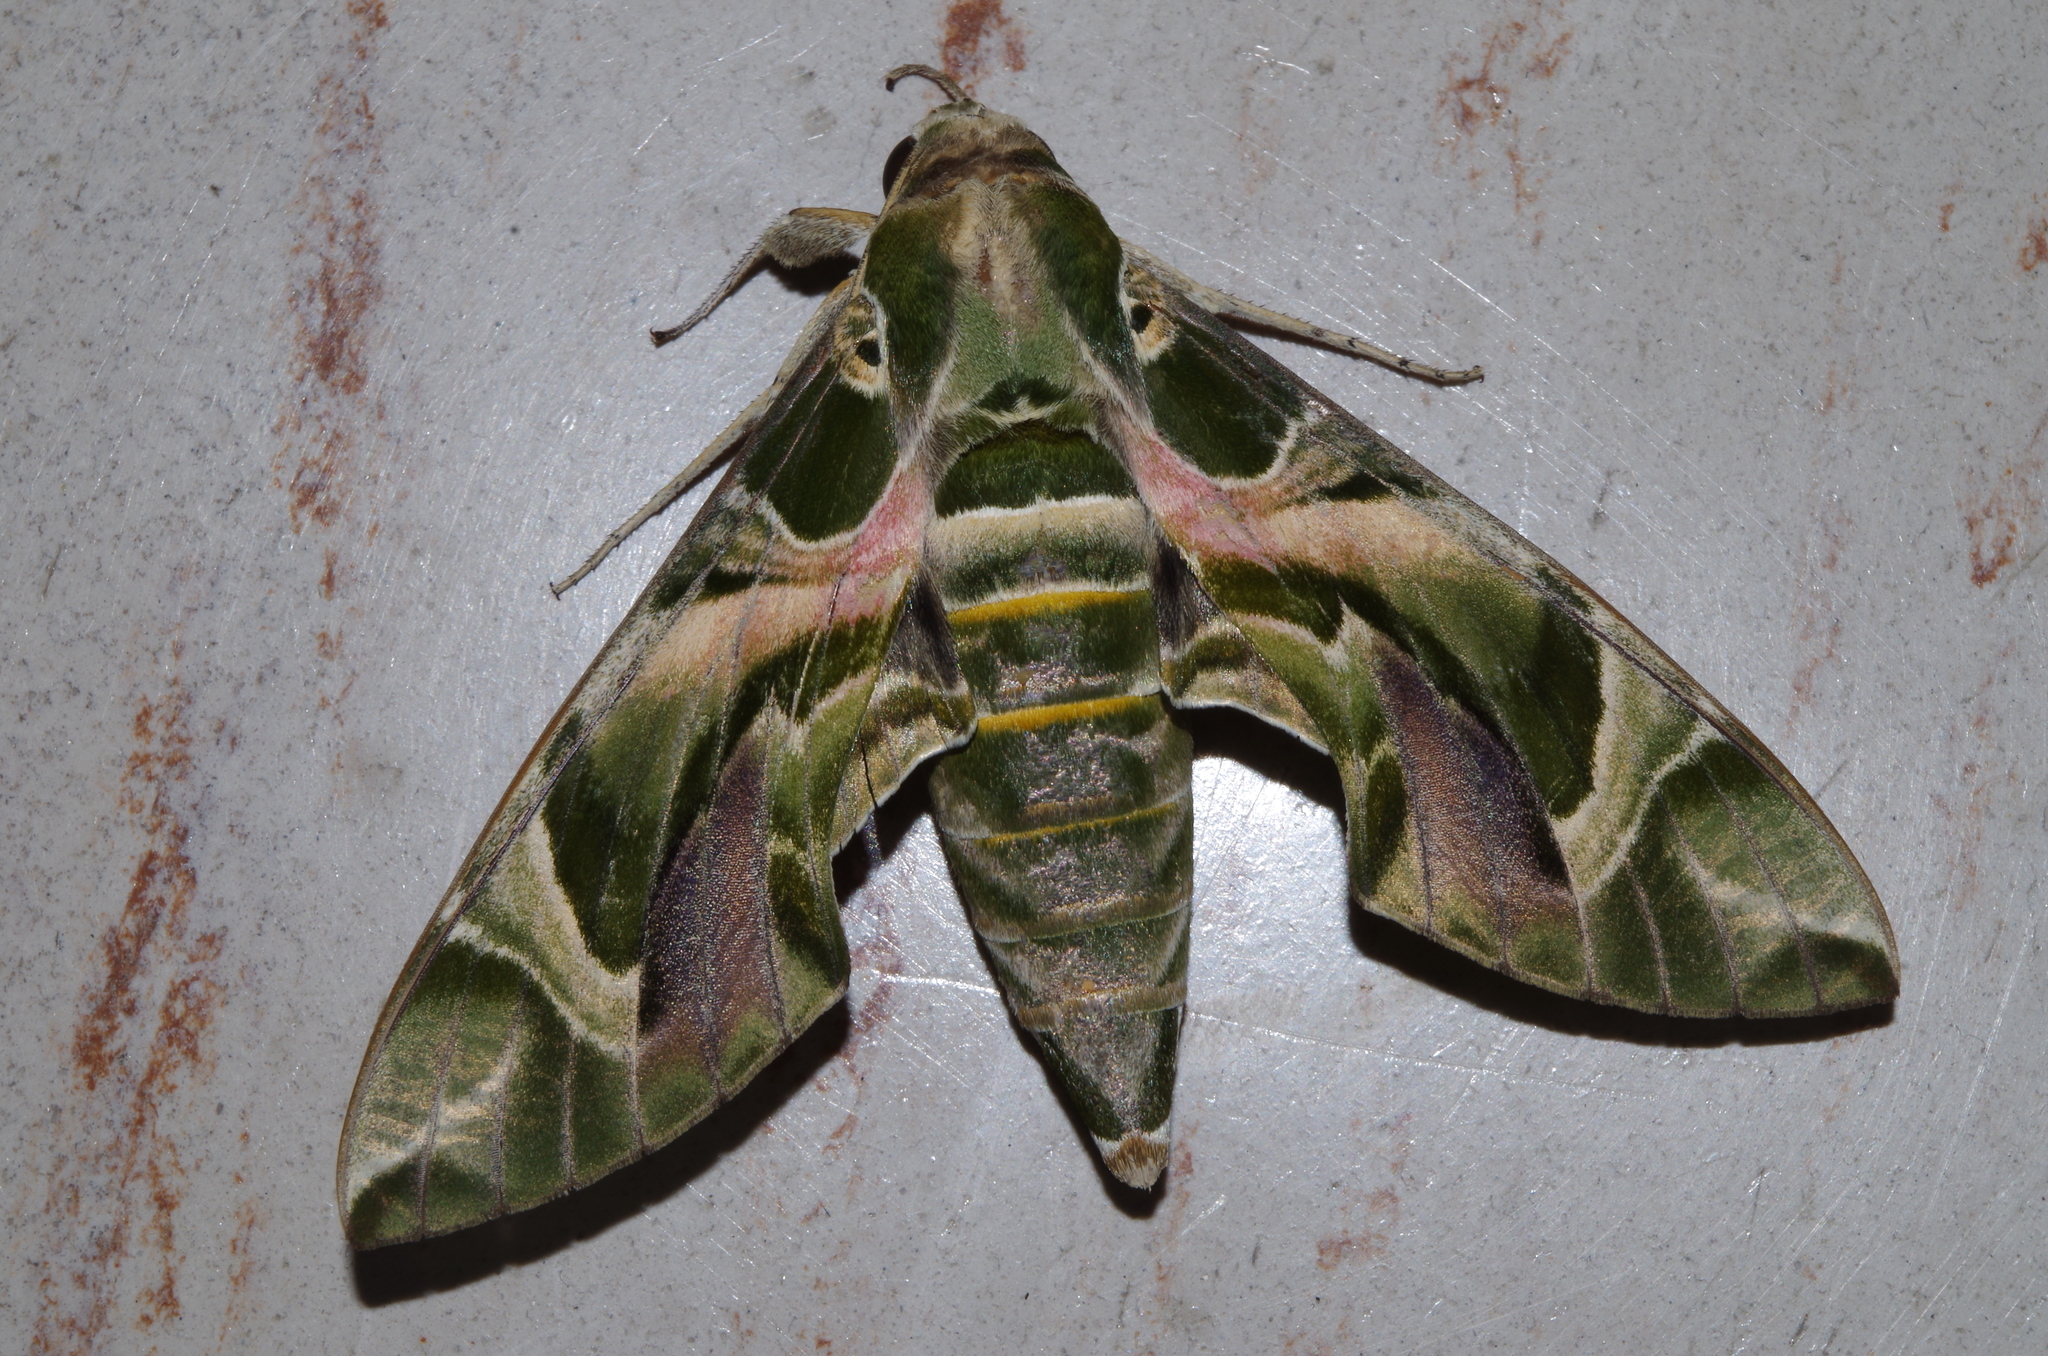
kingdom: Animalia
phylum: Arthropoda
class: Insecta
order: Lepidoptera
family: Sphingidae
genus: Daphnis
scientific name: Daphnis nerii
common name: Oleander hawk-moth
